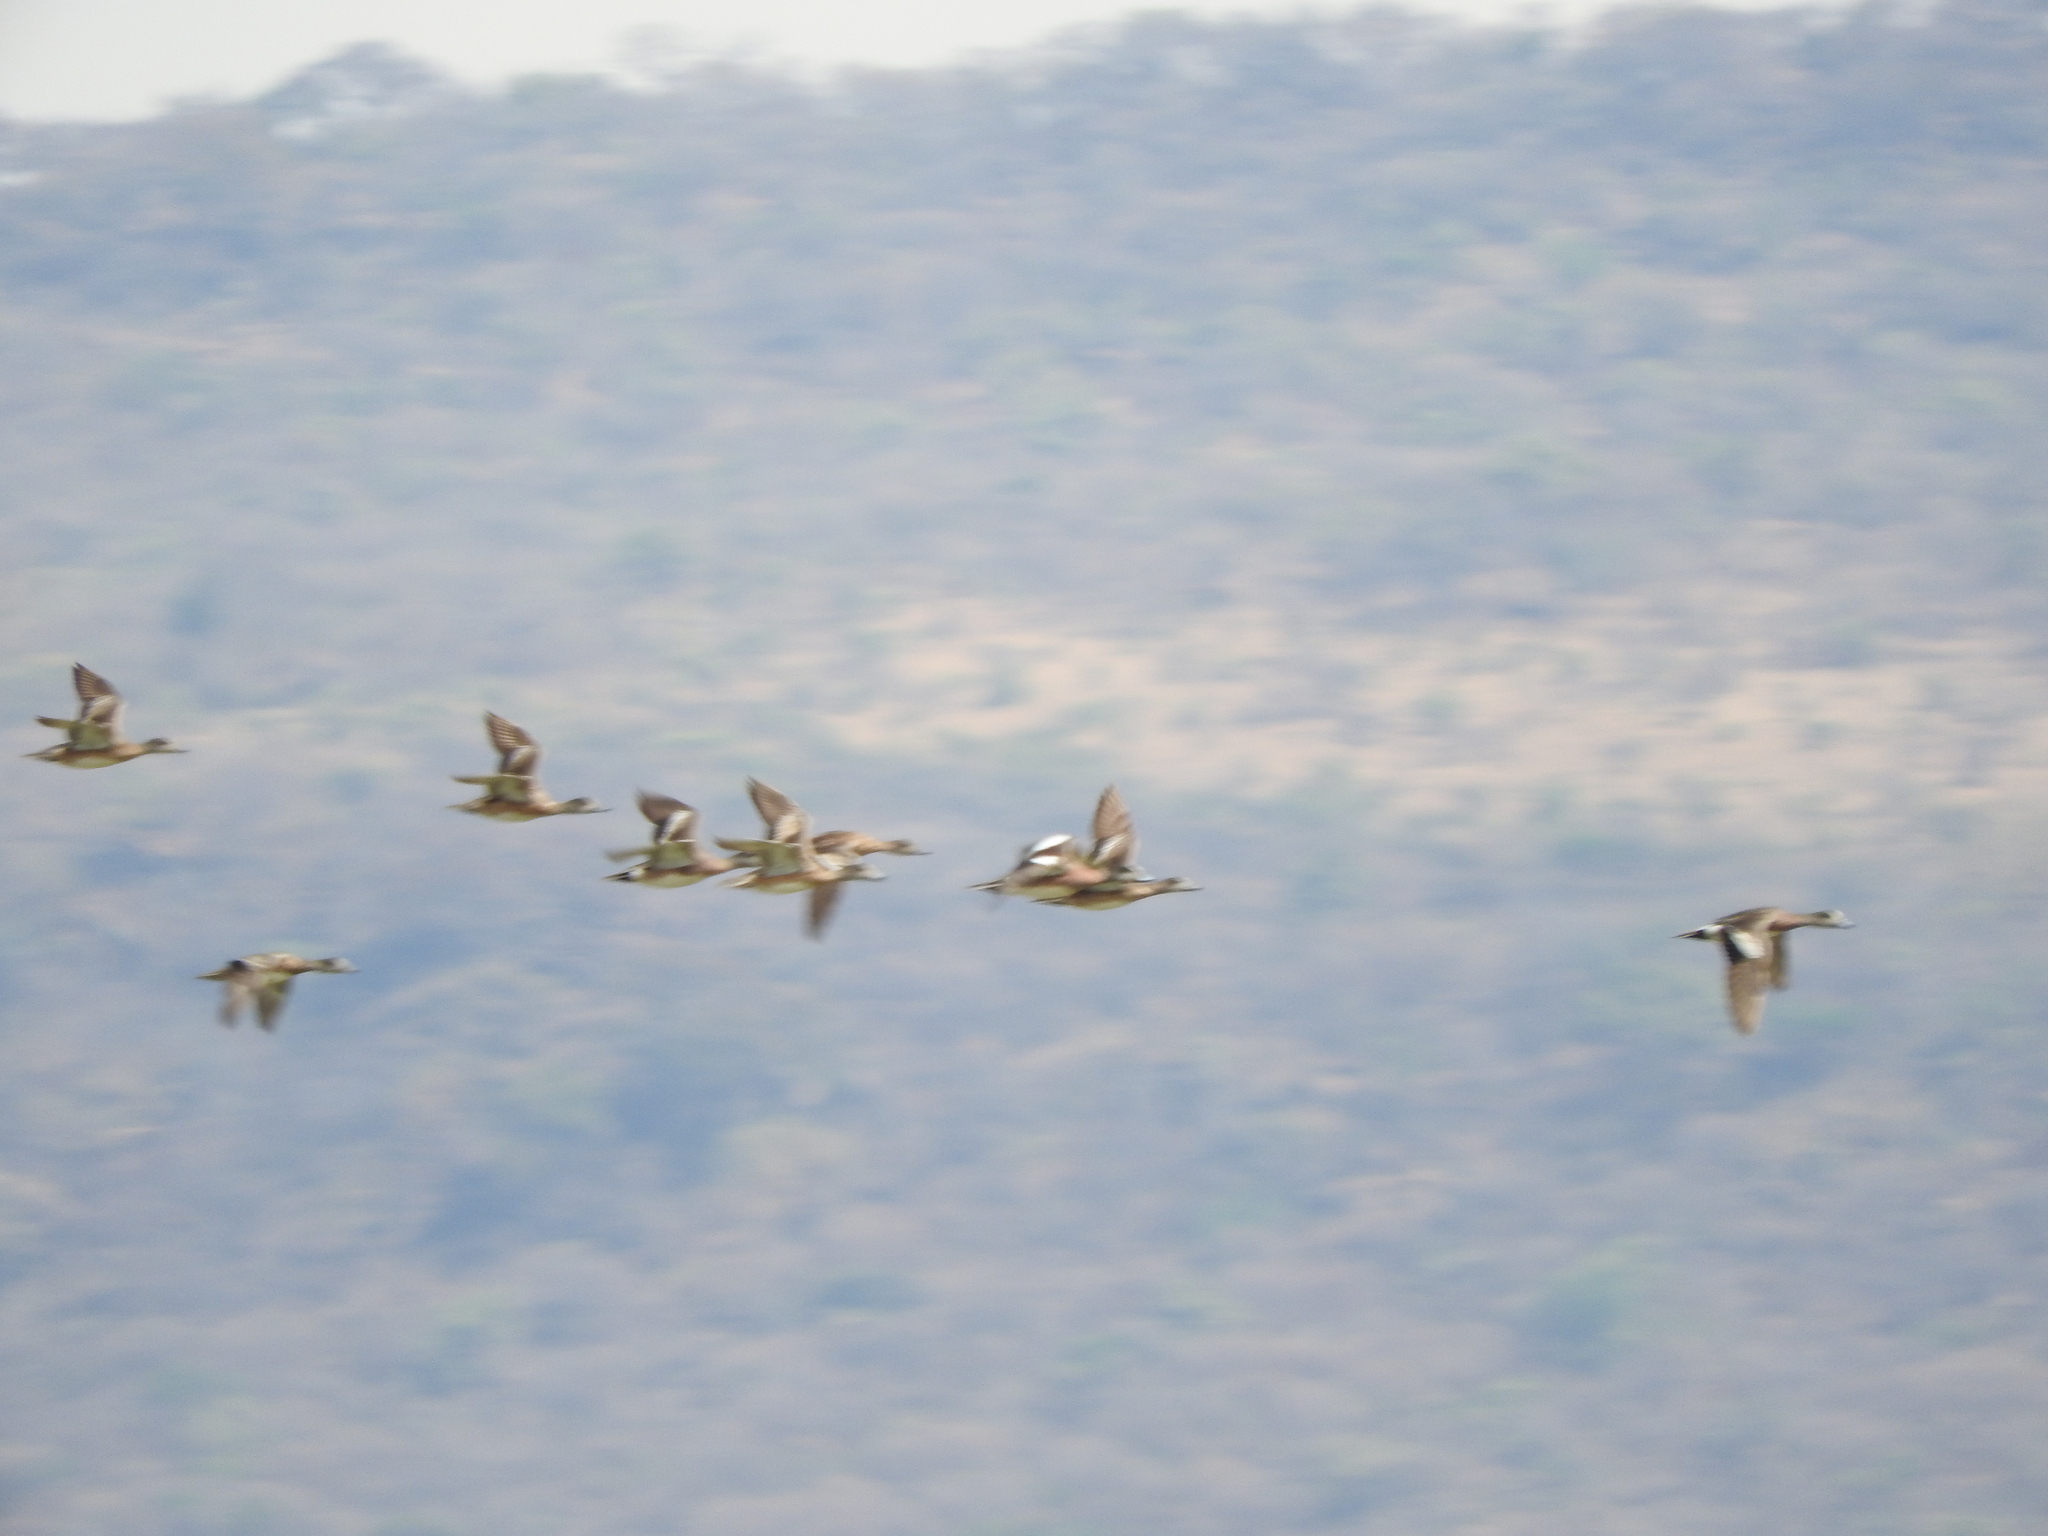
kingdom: Animalia
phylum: Chordata
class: Aves
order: Anseriformes
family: Anatidae
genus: Mareca
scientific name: Mareca strepera
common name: Gadwall
